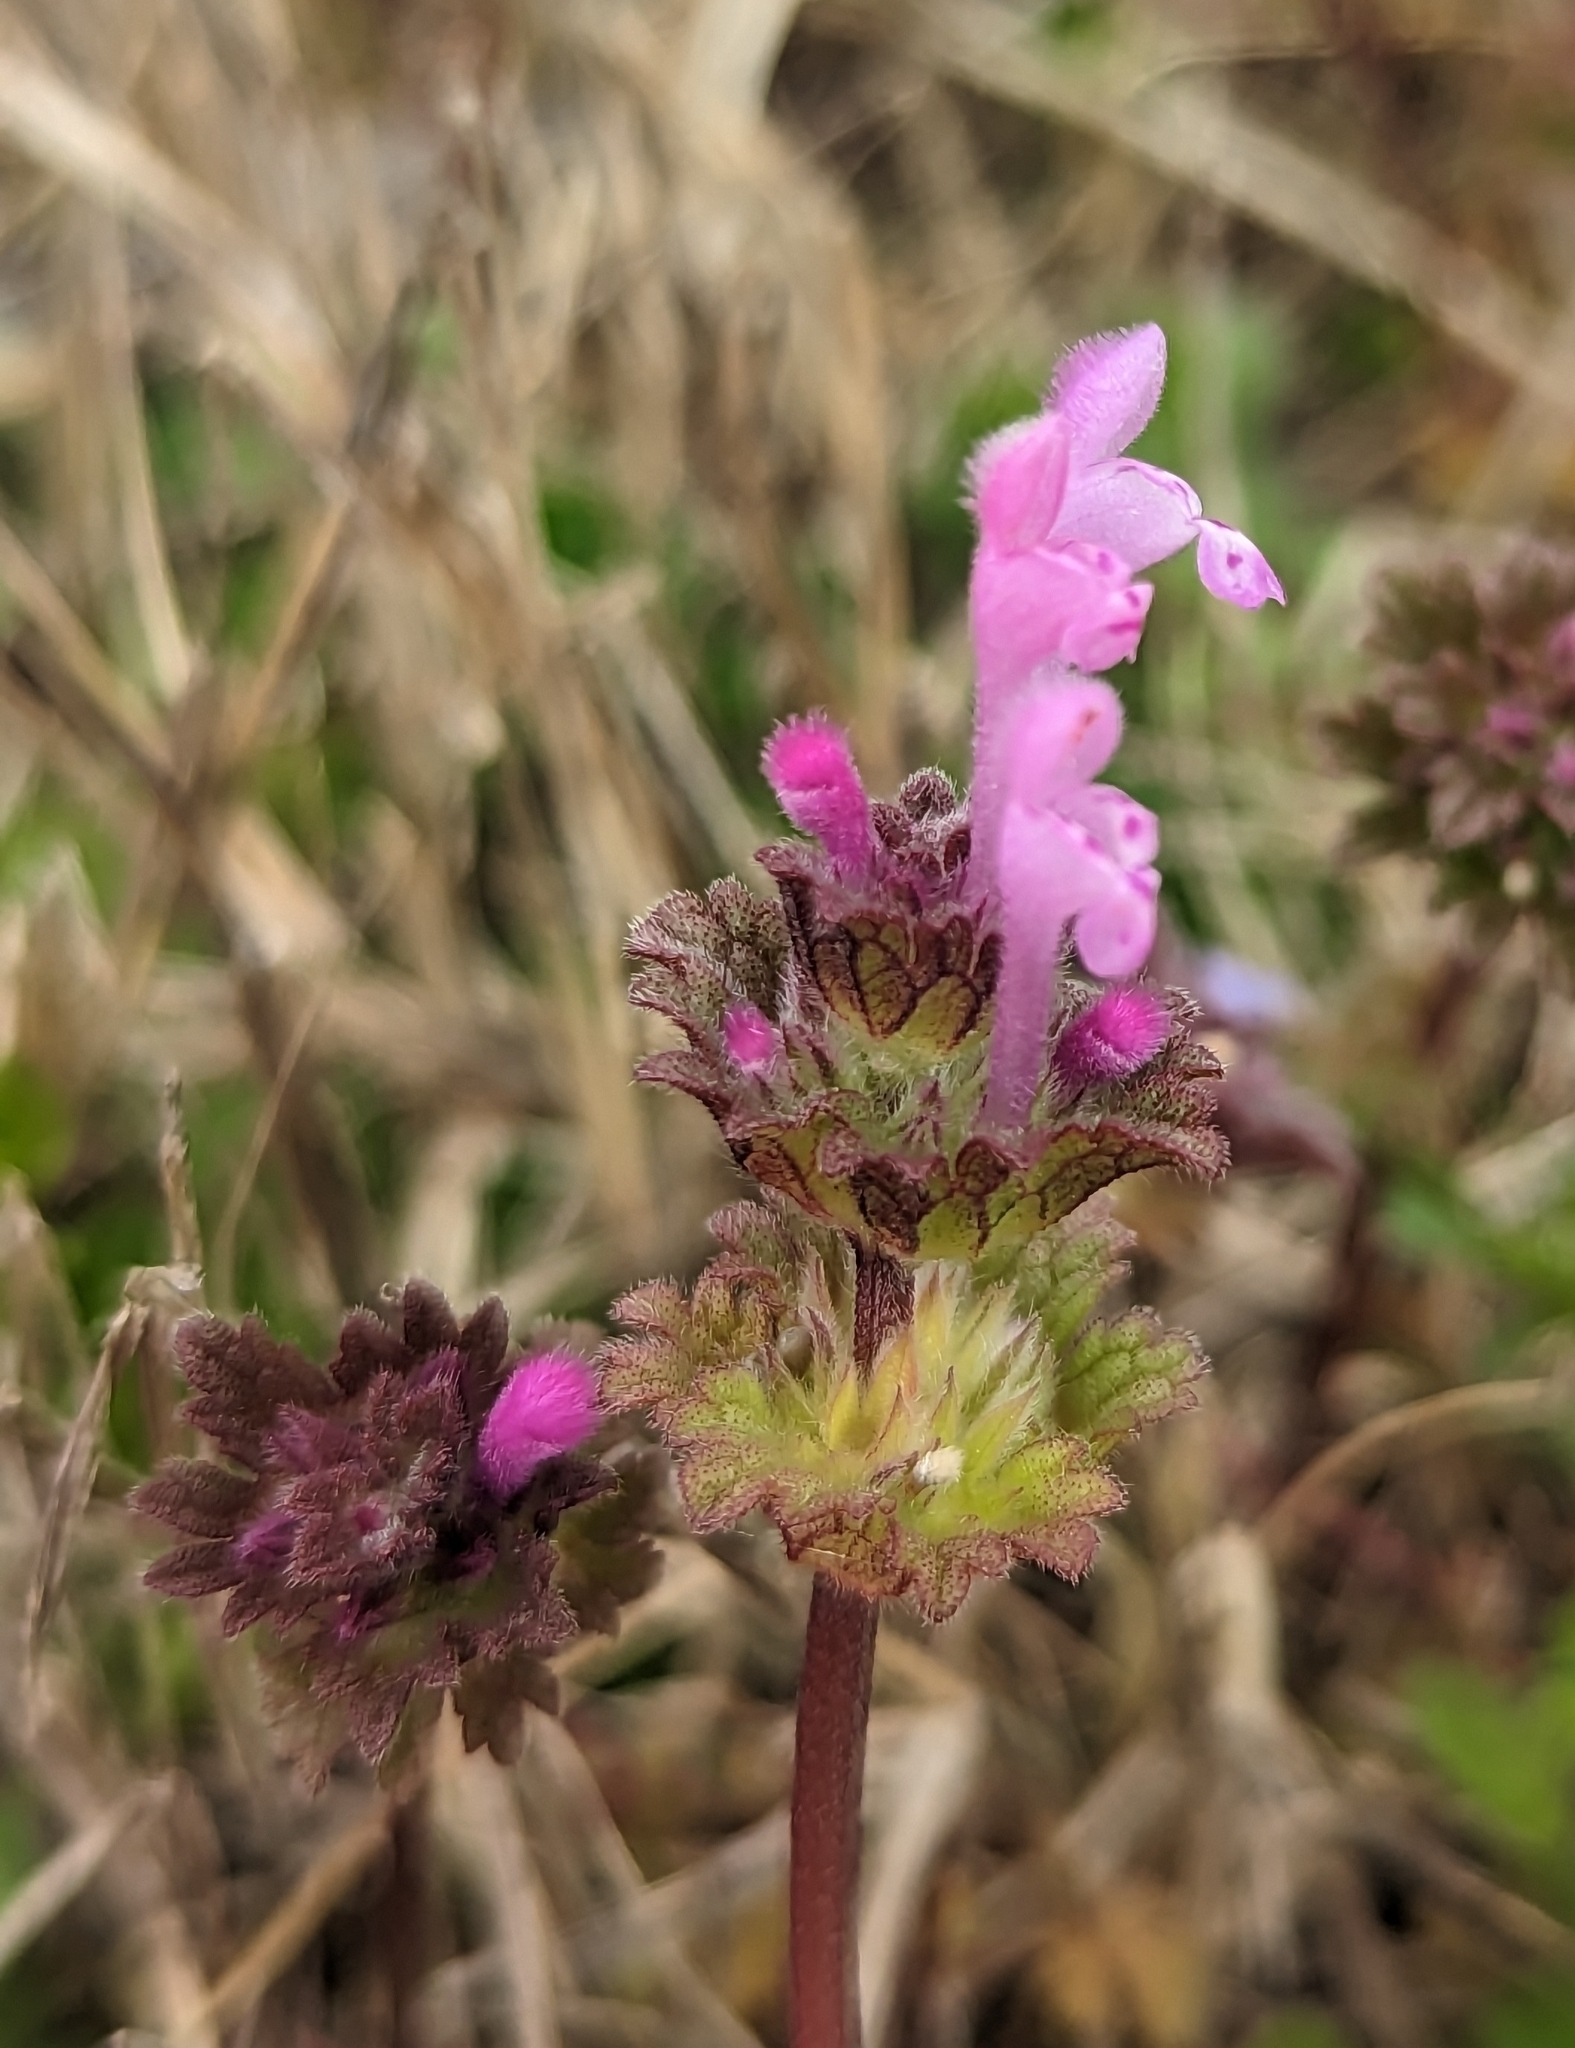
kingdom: Plantae
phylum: Tracheophyta
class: Magnoliopsida
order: Lamiales
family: Lamiaceae
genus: Lamium
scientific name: Lamium amplexicaule
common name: Henbit dead-nettle
